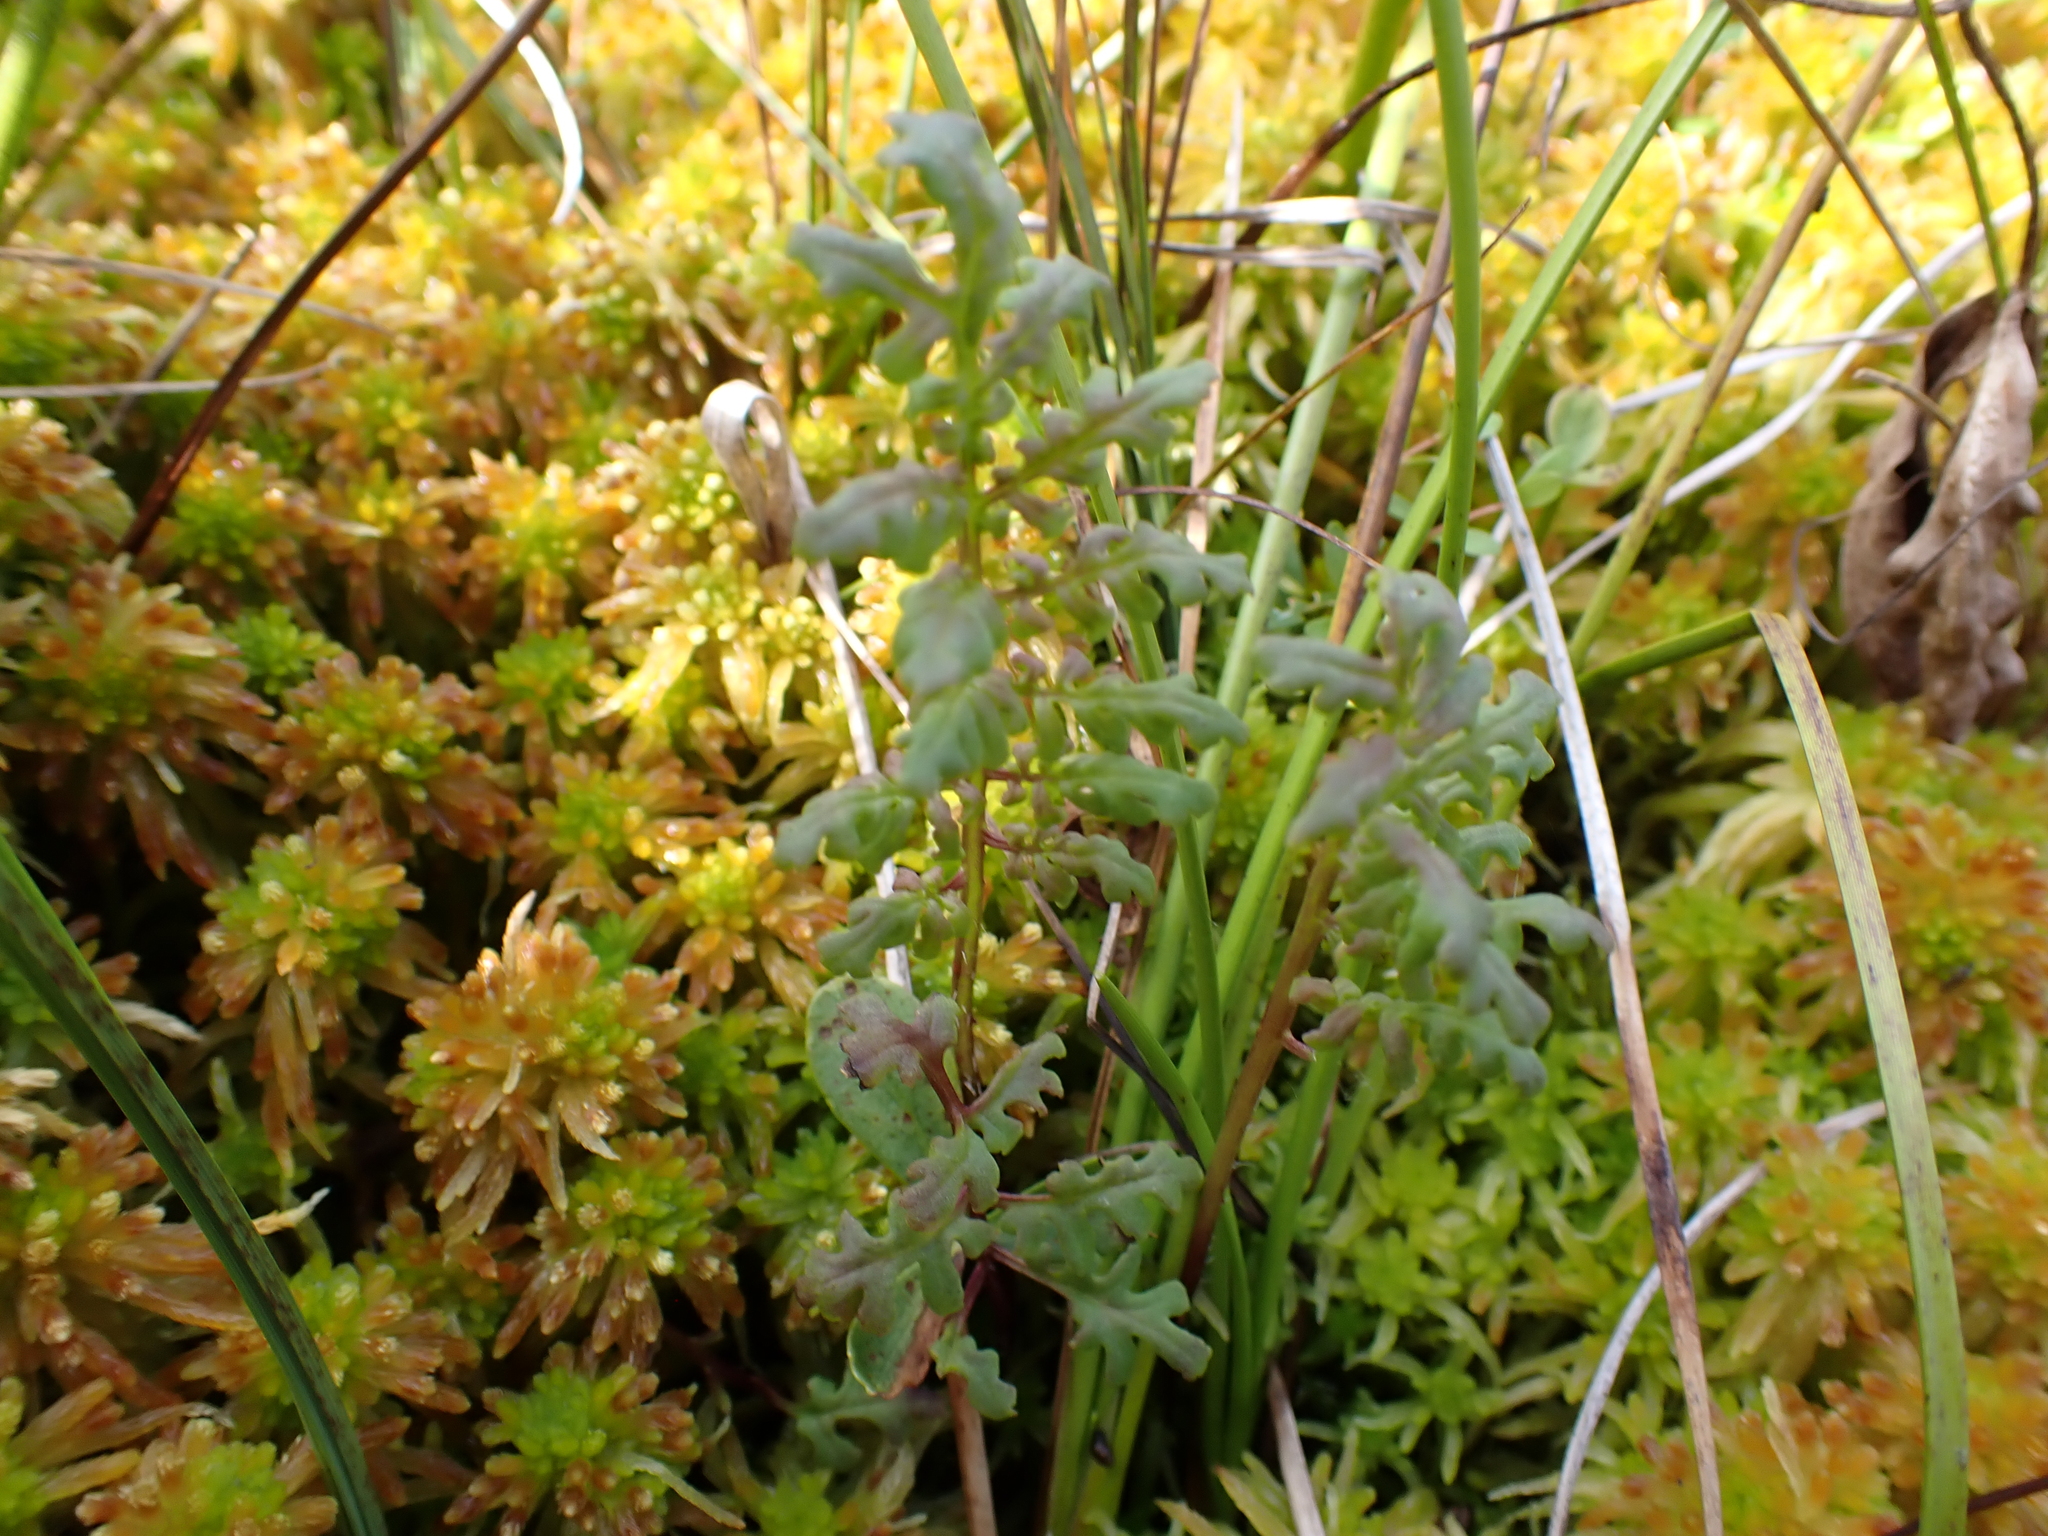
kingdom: Plantae
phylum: Tracheophyta
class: Magnoliopsida
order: Lamiales
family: Orobanchaceae
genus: Pedicularis
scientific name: Pedicularis parviflora
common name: Muskeg lousewort
